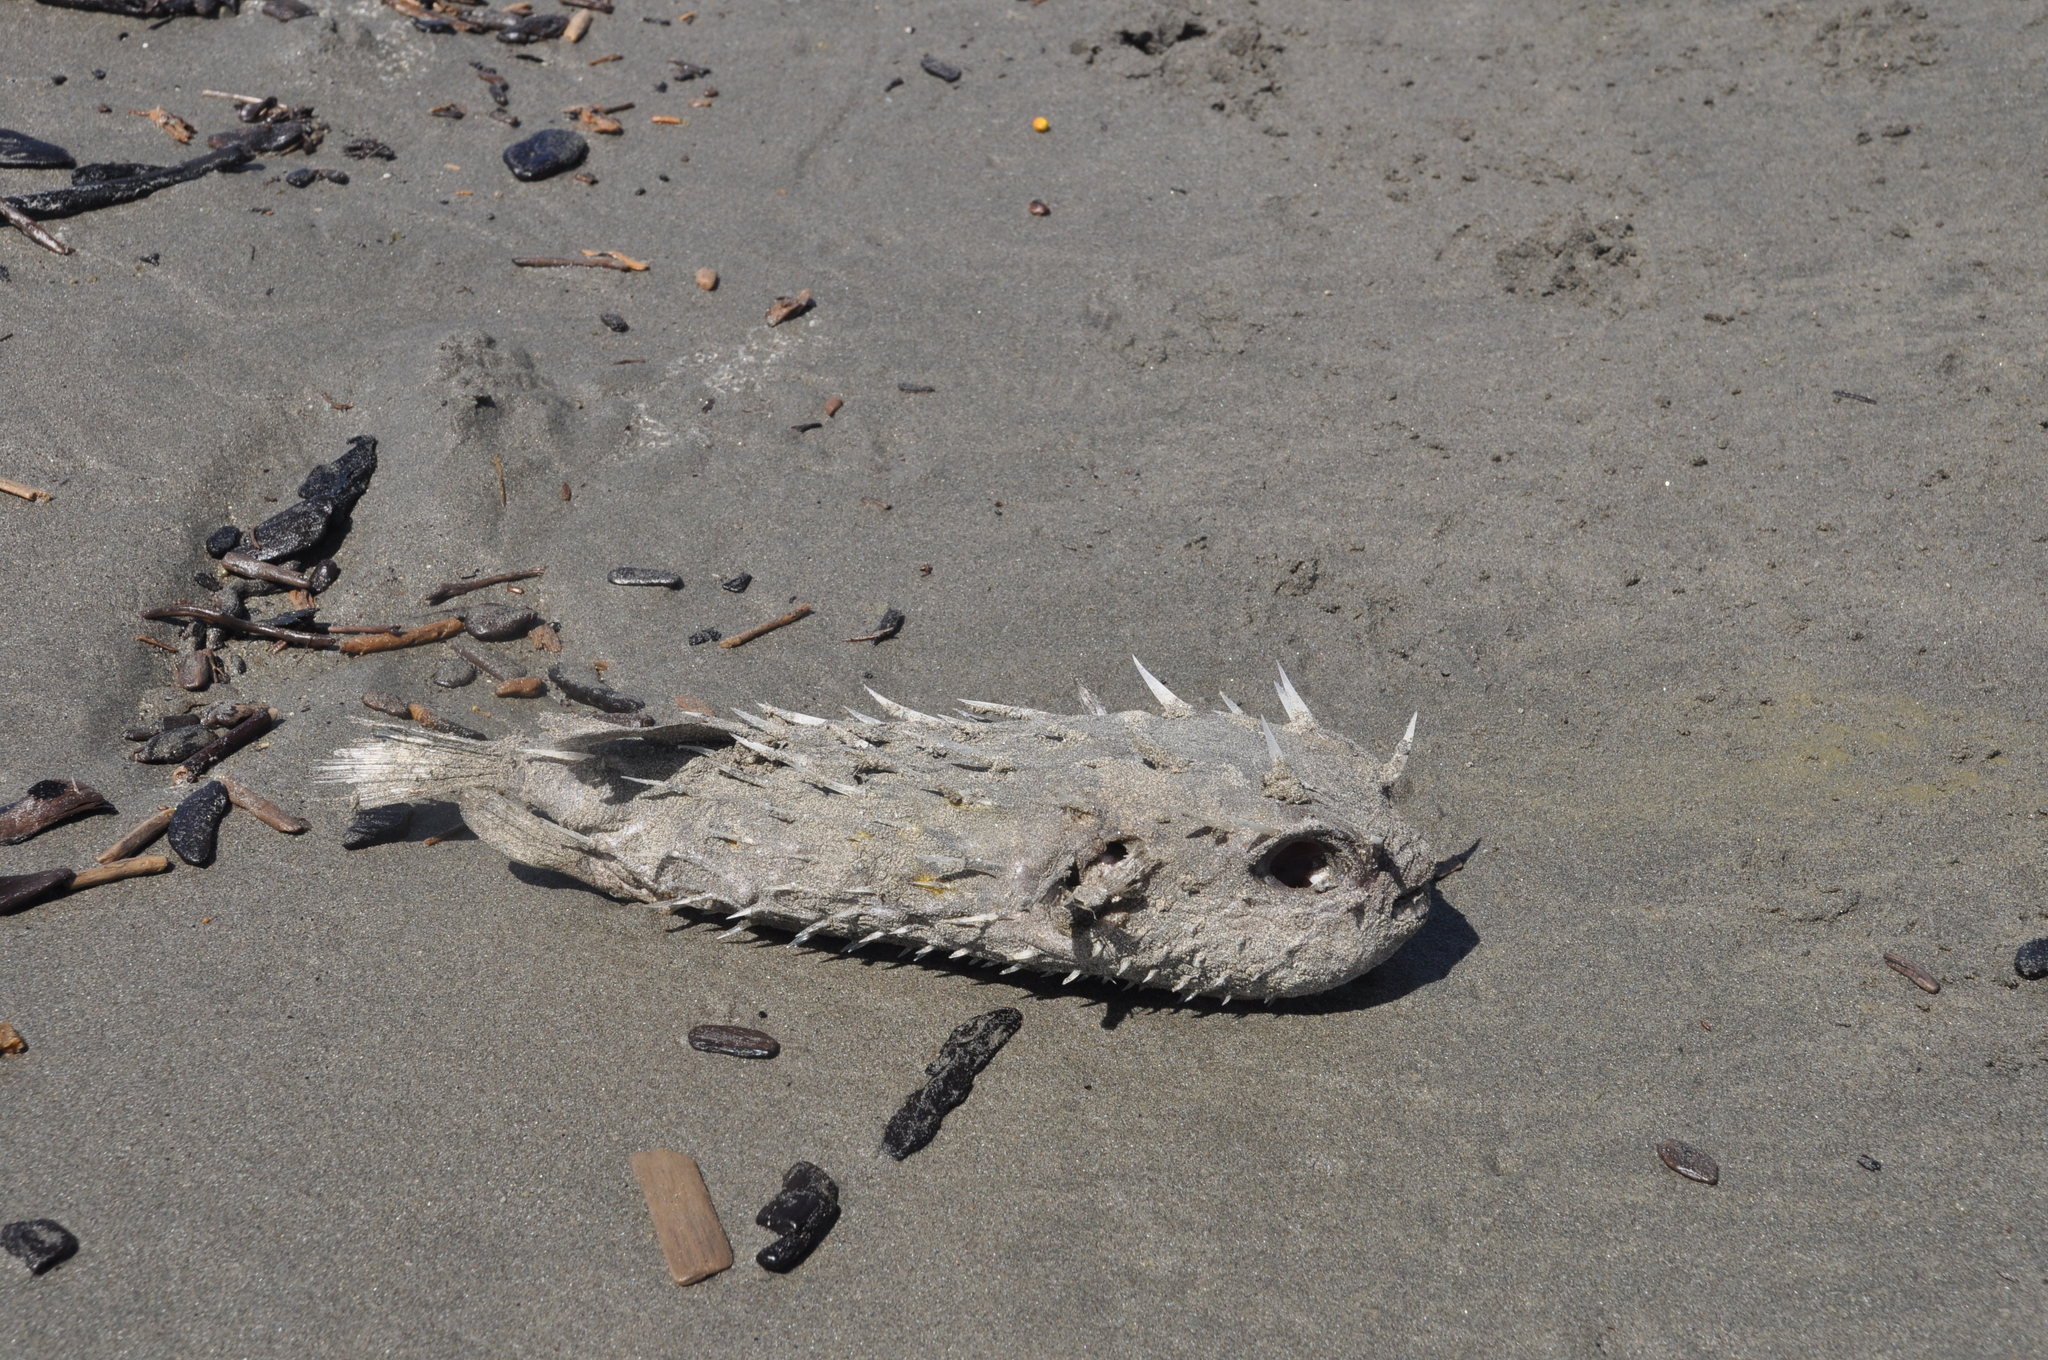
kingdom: Animalia
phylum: Chordata
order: Tetraodontiformes
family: Diodontidae
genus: Allomycterus
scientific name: Allomycterus pilatus
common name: No common name
